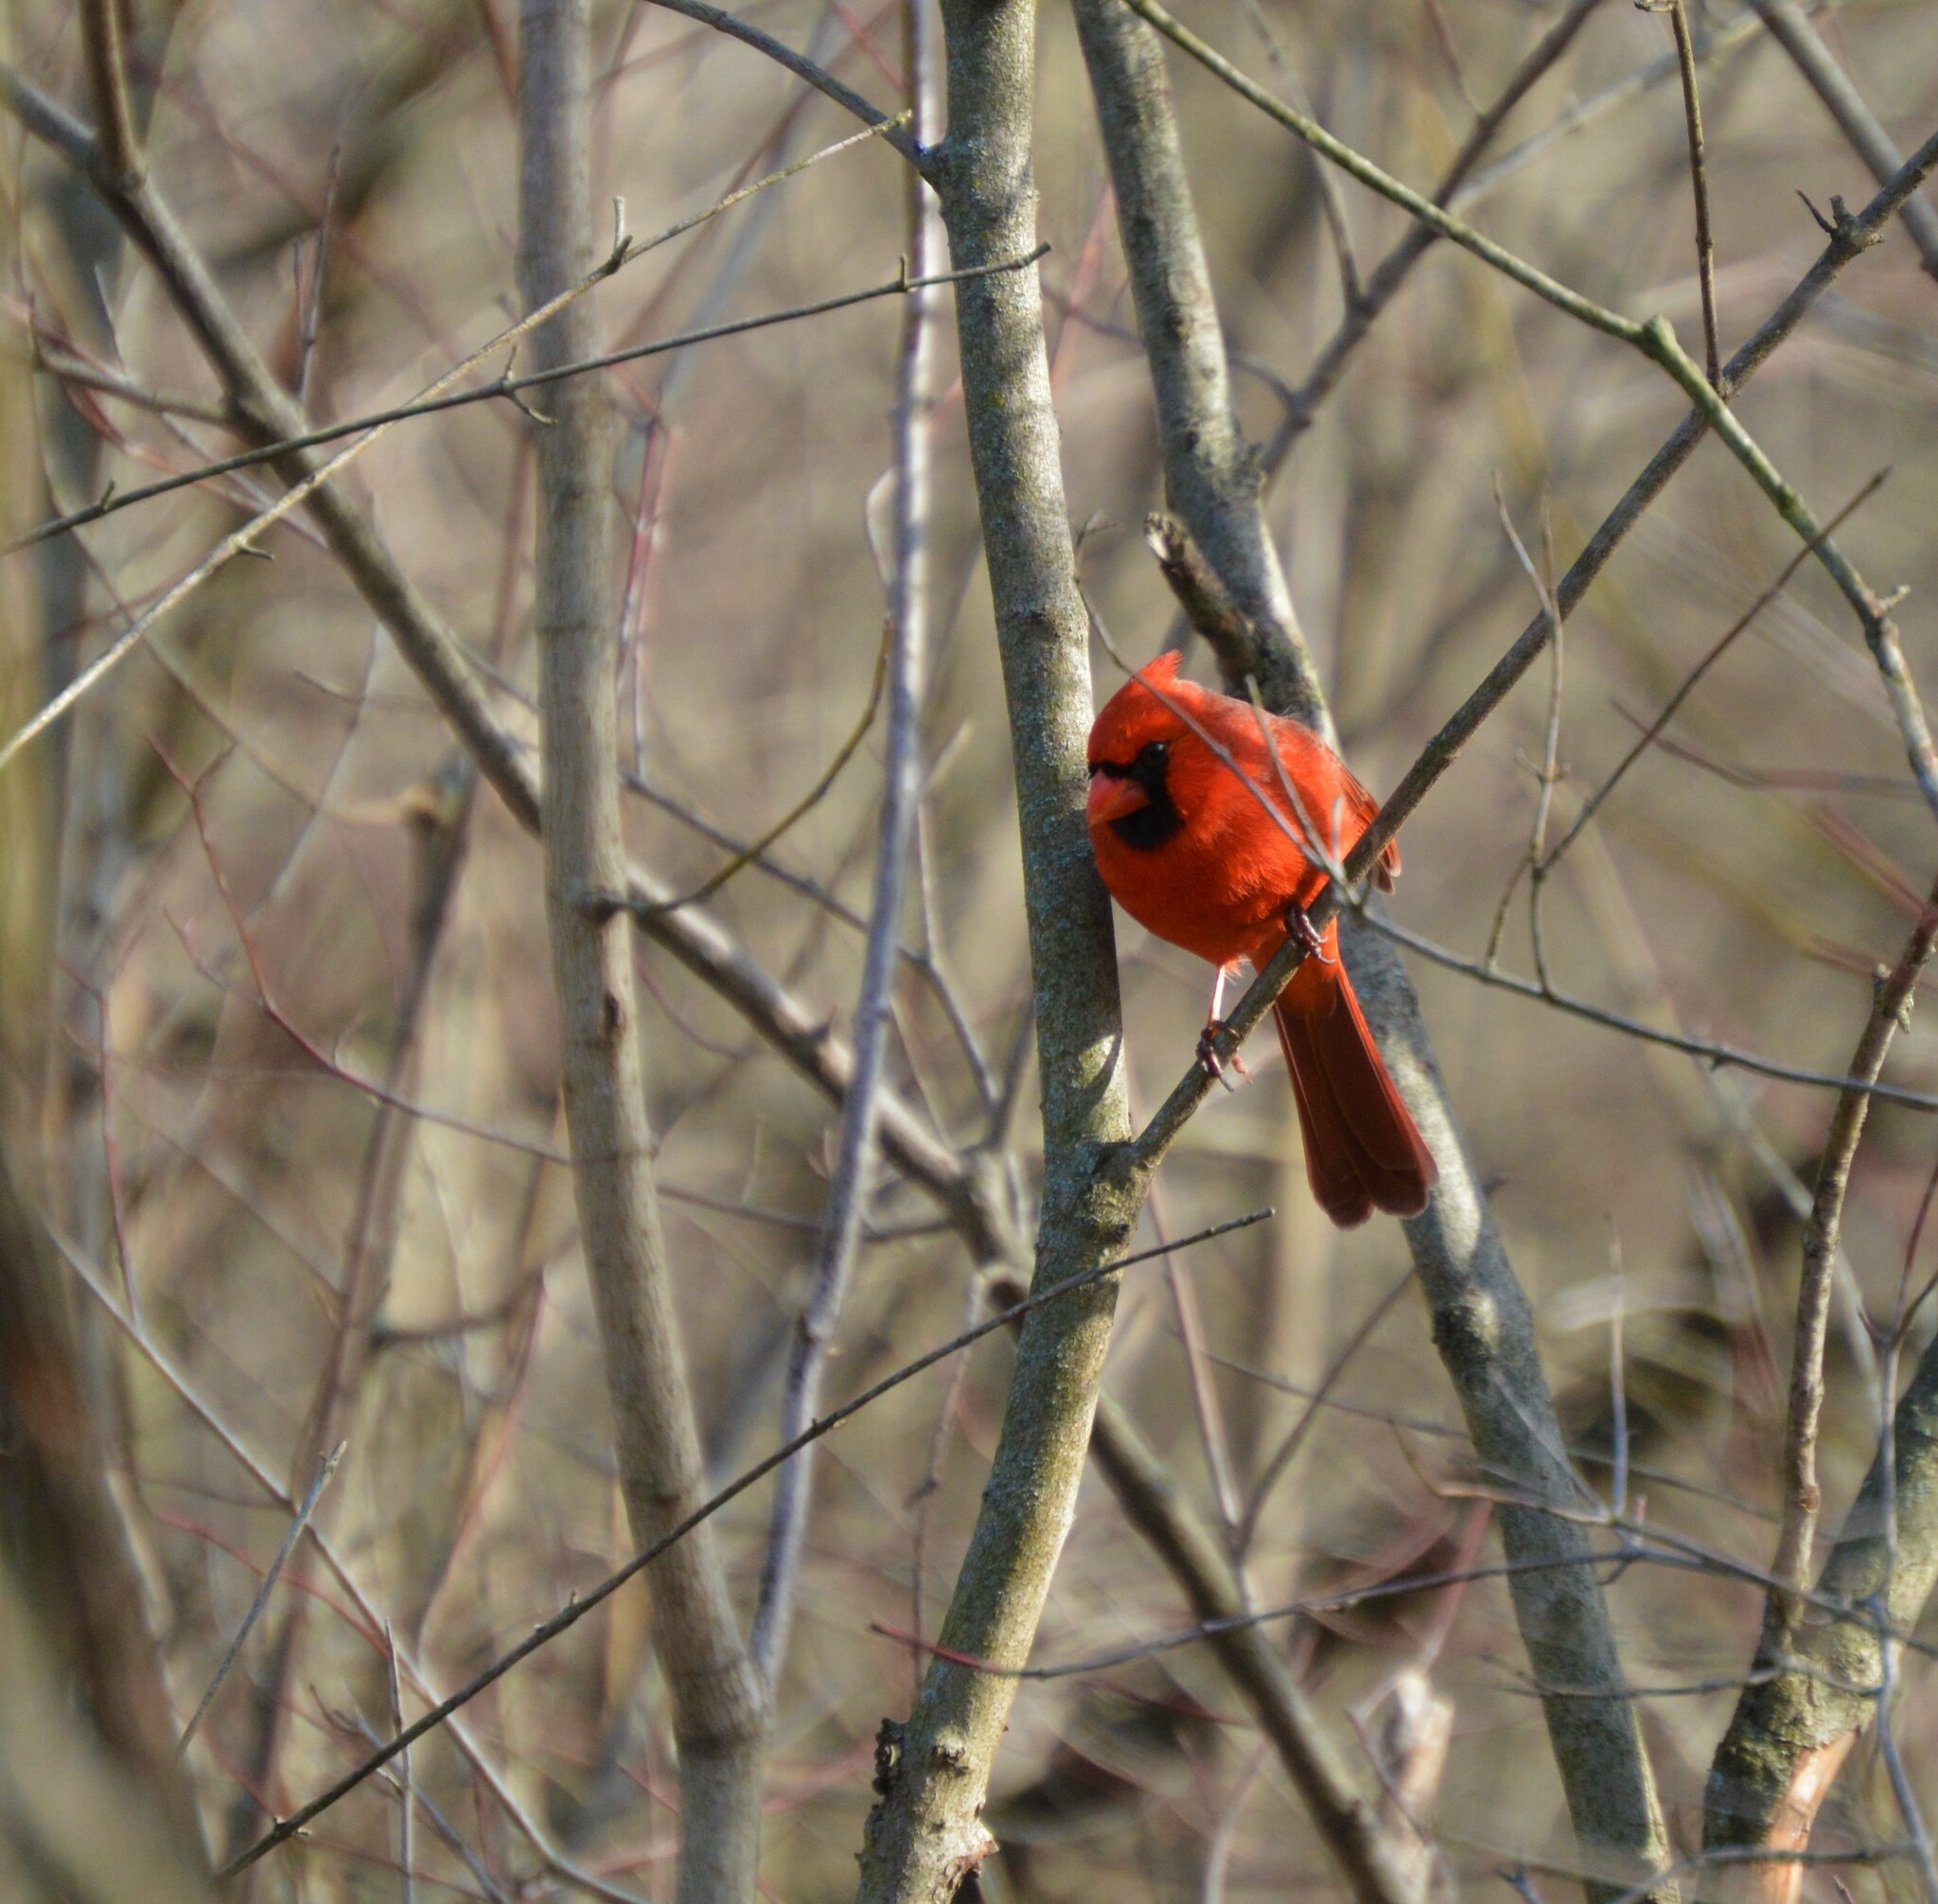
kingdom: Animalia
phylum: Chordata
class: Aves
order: Passeriformes
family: Cardinalidae
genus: Cardinalis
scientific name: Cardinalis cardinalis
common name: Northern cardinal
